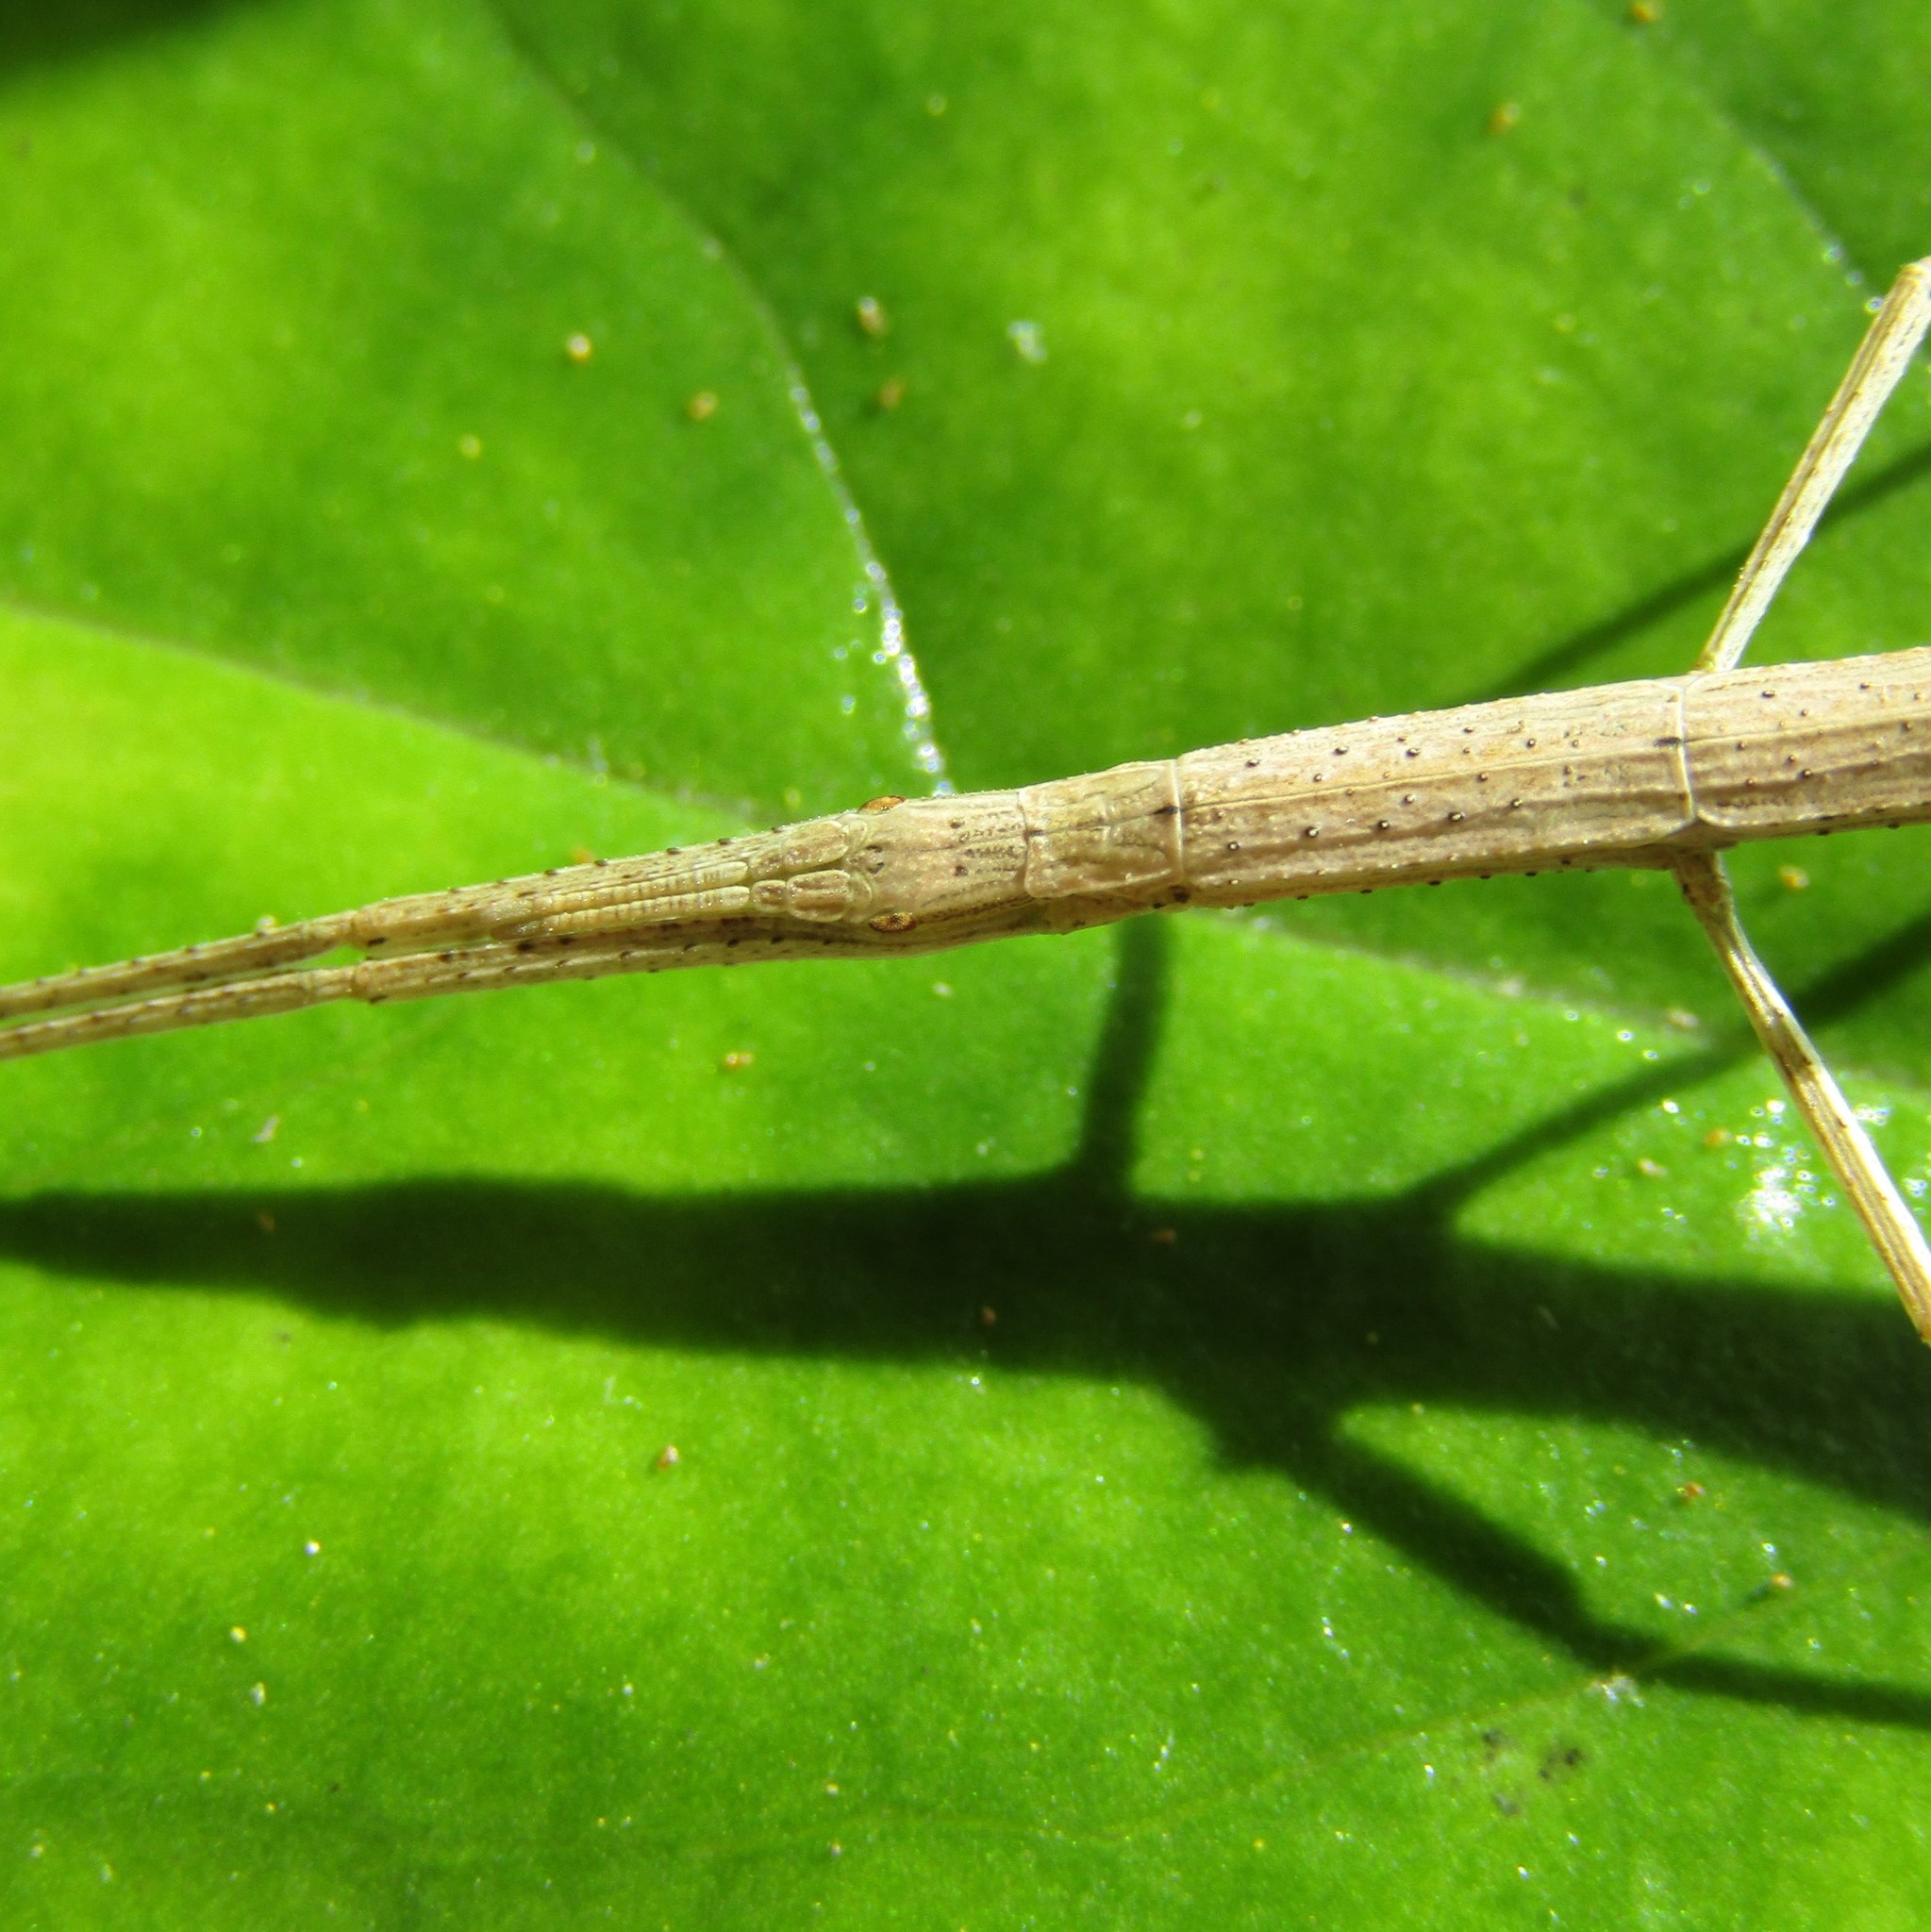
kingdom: Animalia
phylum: Arthropoda
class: Insecta
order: Phasmida
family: Phasmatidae
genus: Tectarchus
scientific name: Tectarchus huttoni
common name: The common ridge-backed stick insect
